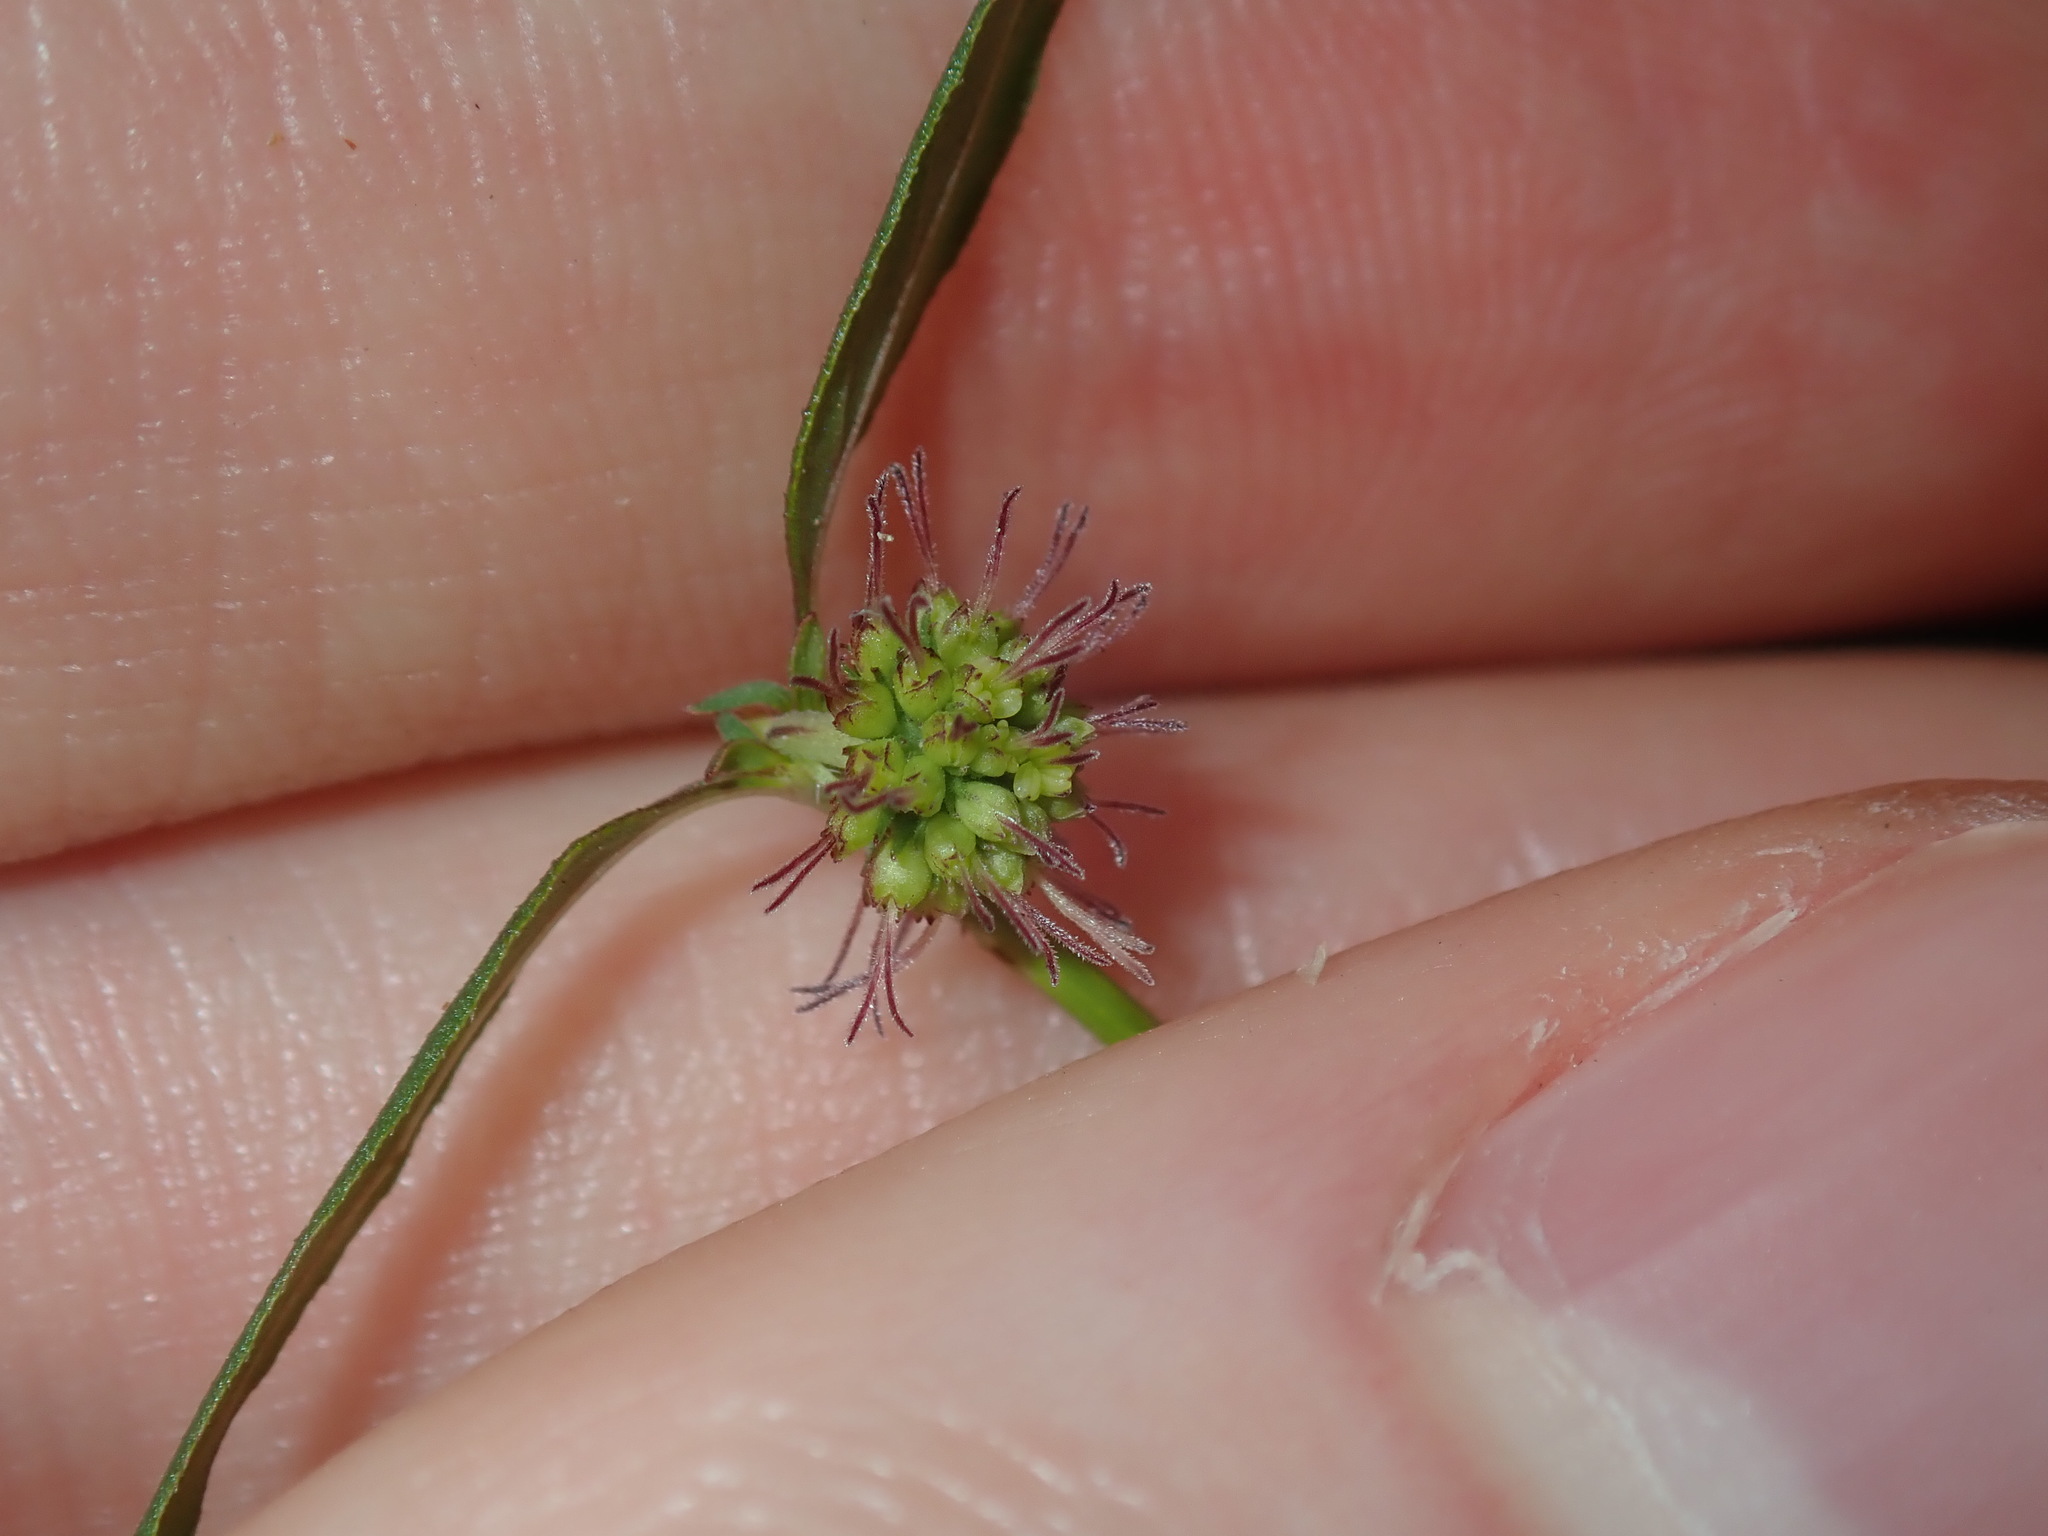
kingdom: Plantae
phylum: Tracheophyta
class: Magnoliopsida
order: Gentianales
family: Rubiaceae
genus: Opercularia
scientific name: Opercularia diphylla
